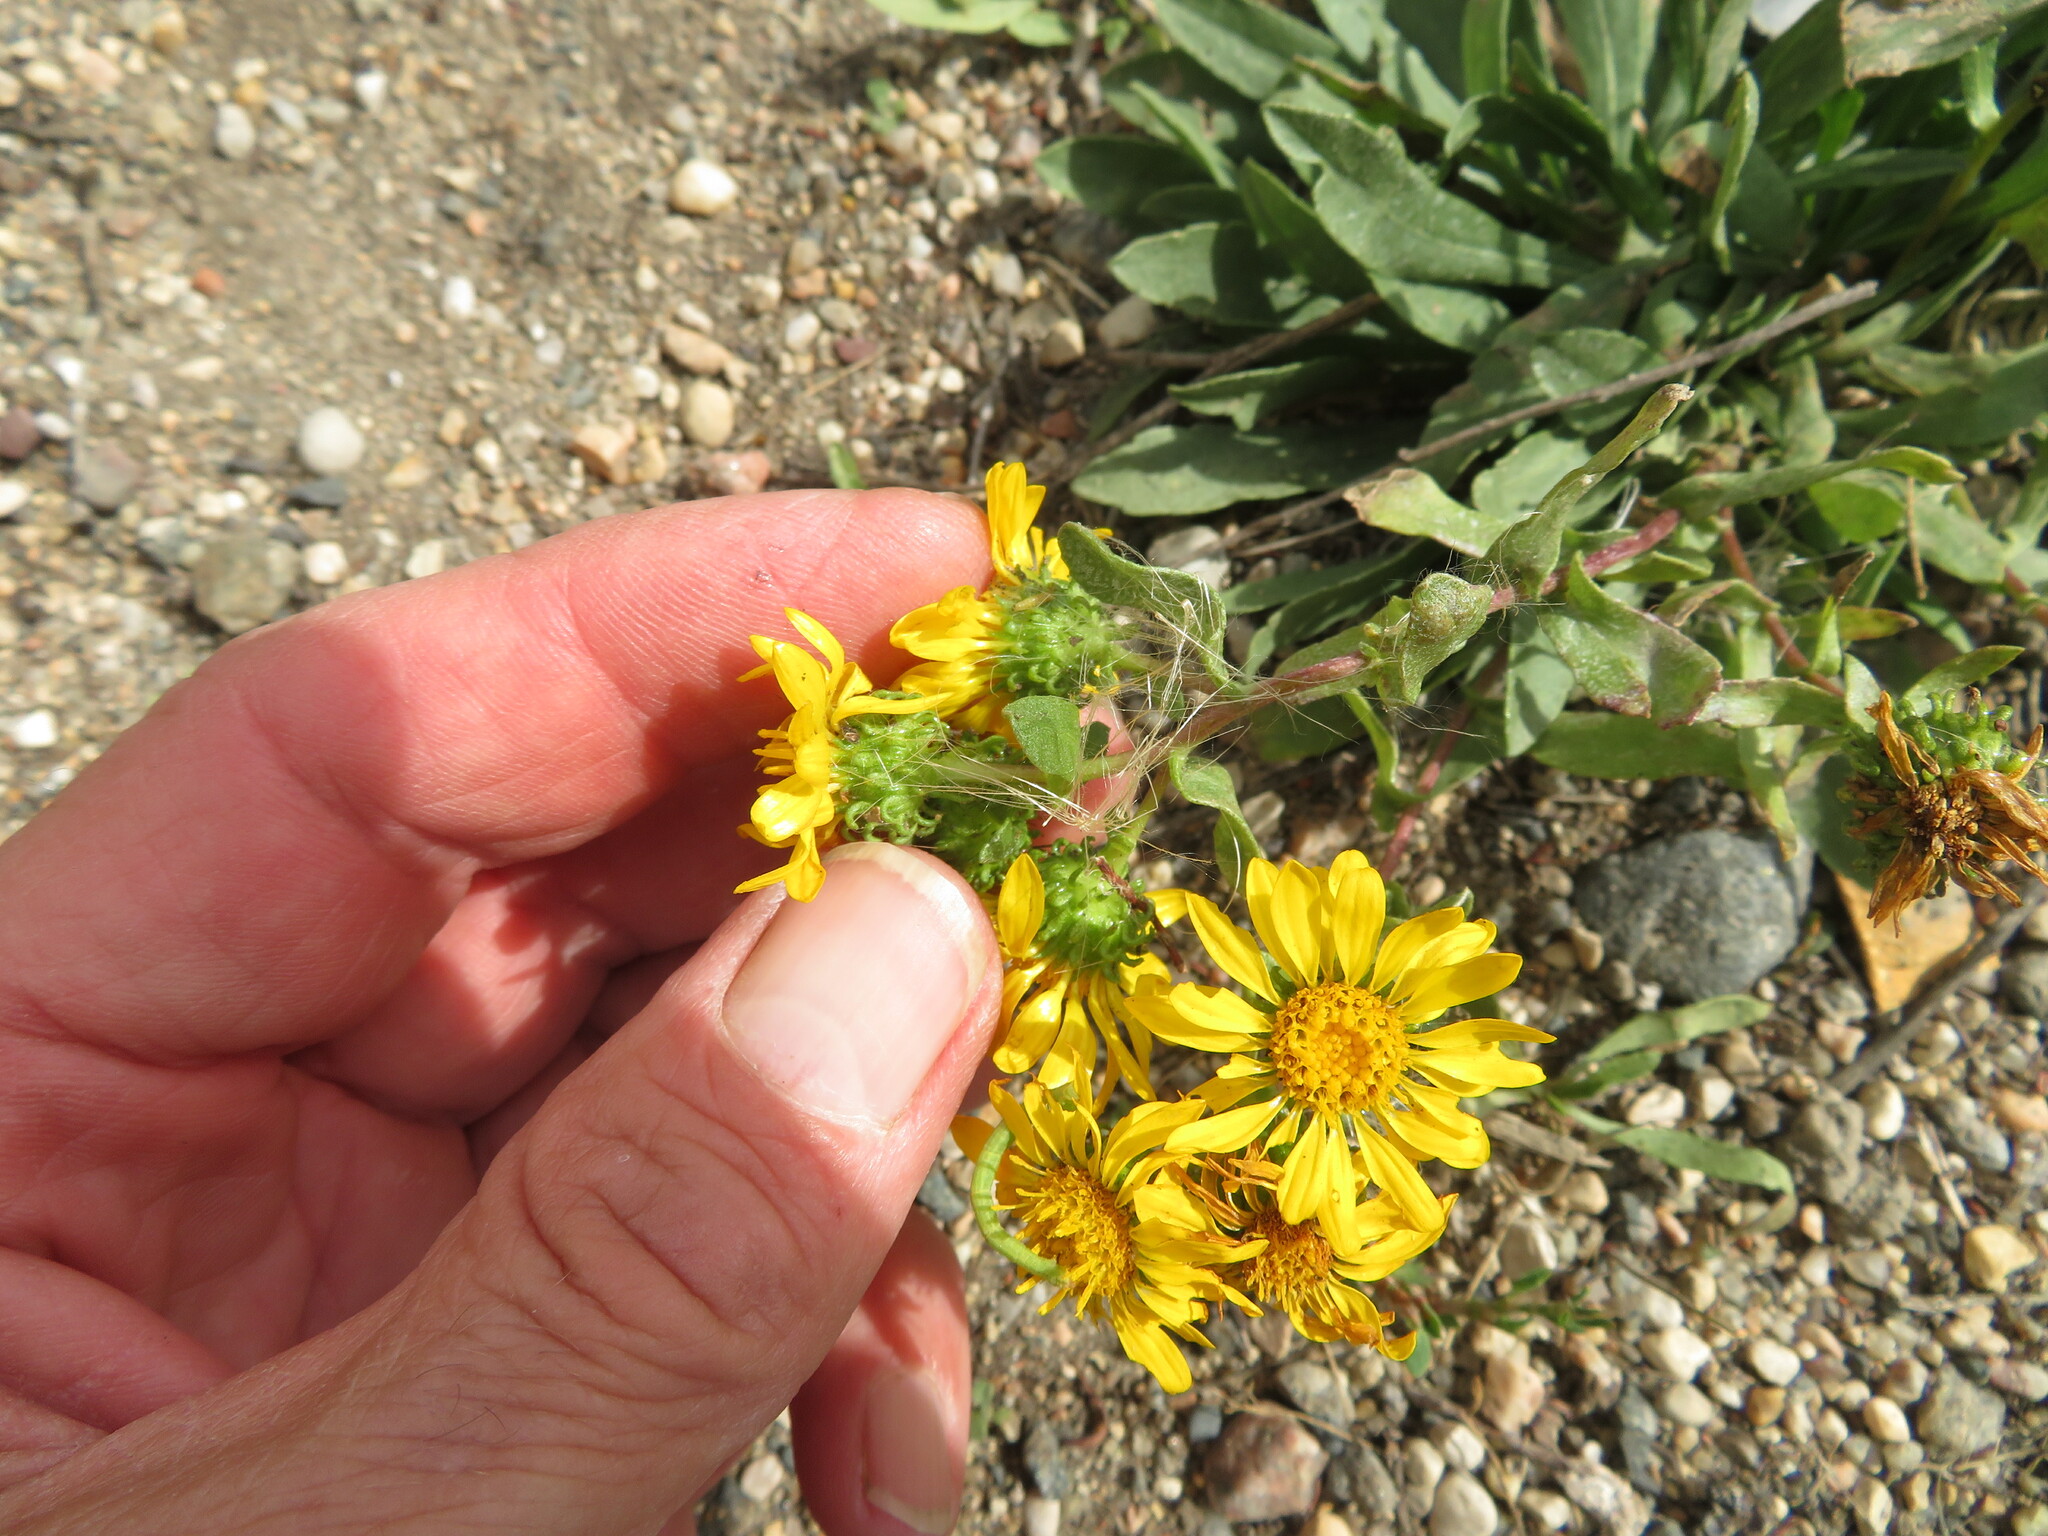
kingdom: Plantae
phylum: Tracheophyta
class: Magnoliopsida
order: Asterales
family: Asteraceae
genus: Grindelia
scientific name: Grindelia squarrosa
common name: Curly-cup gumweed
